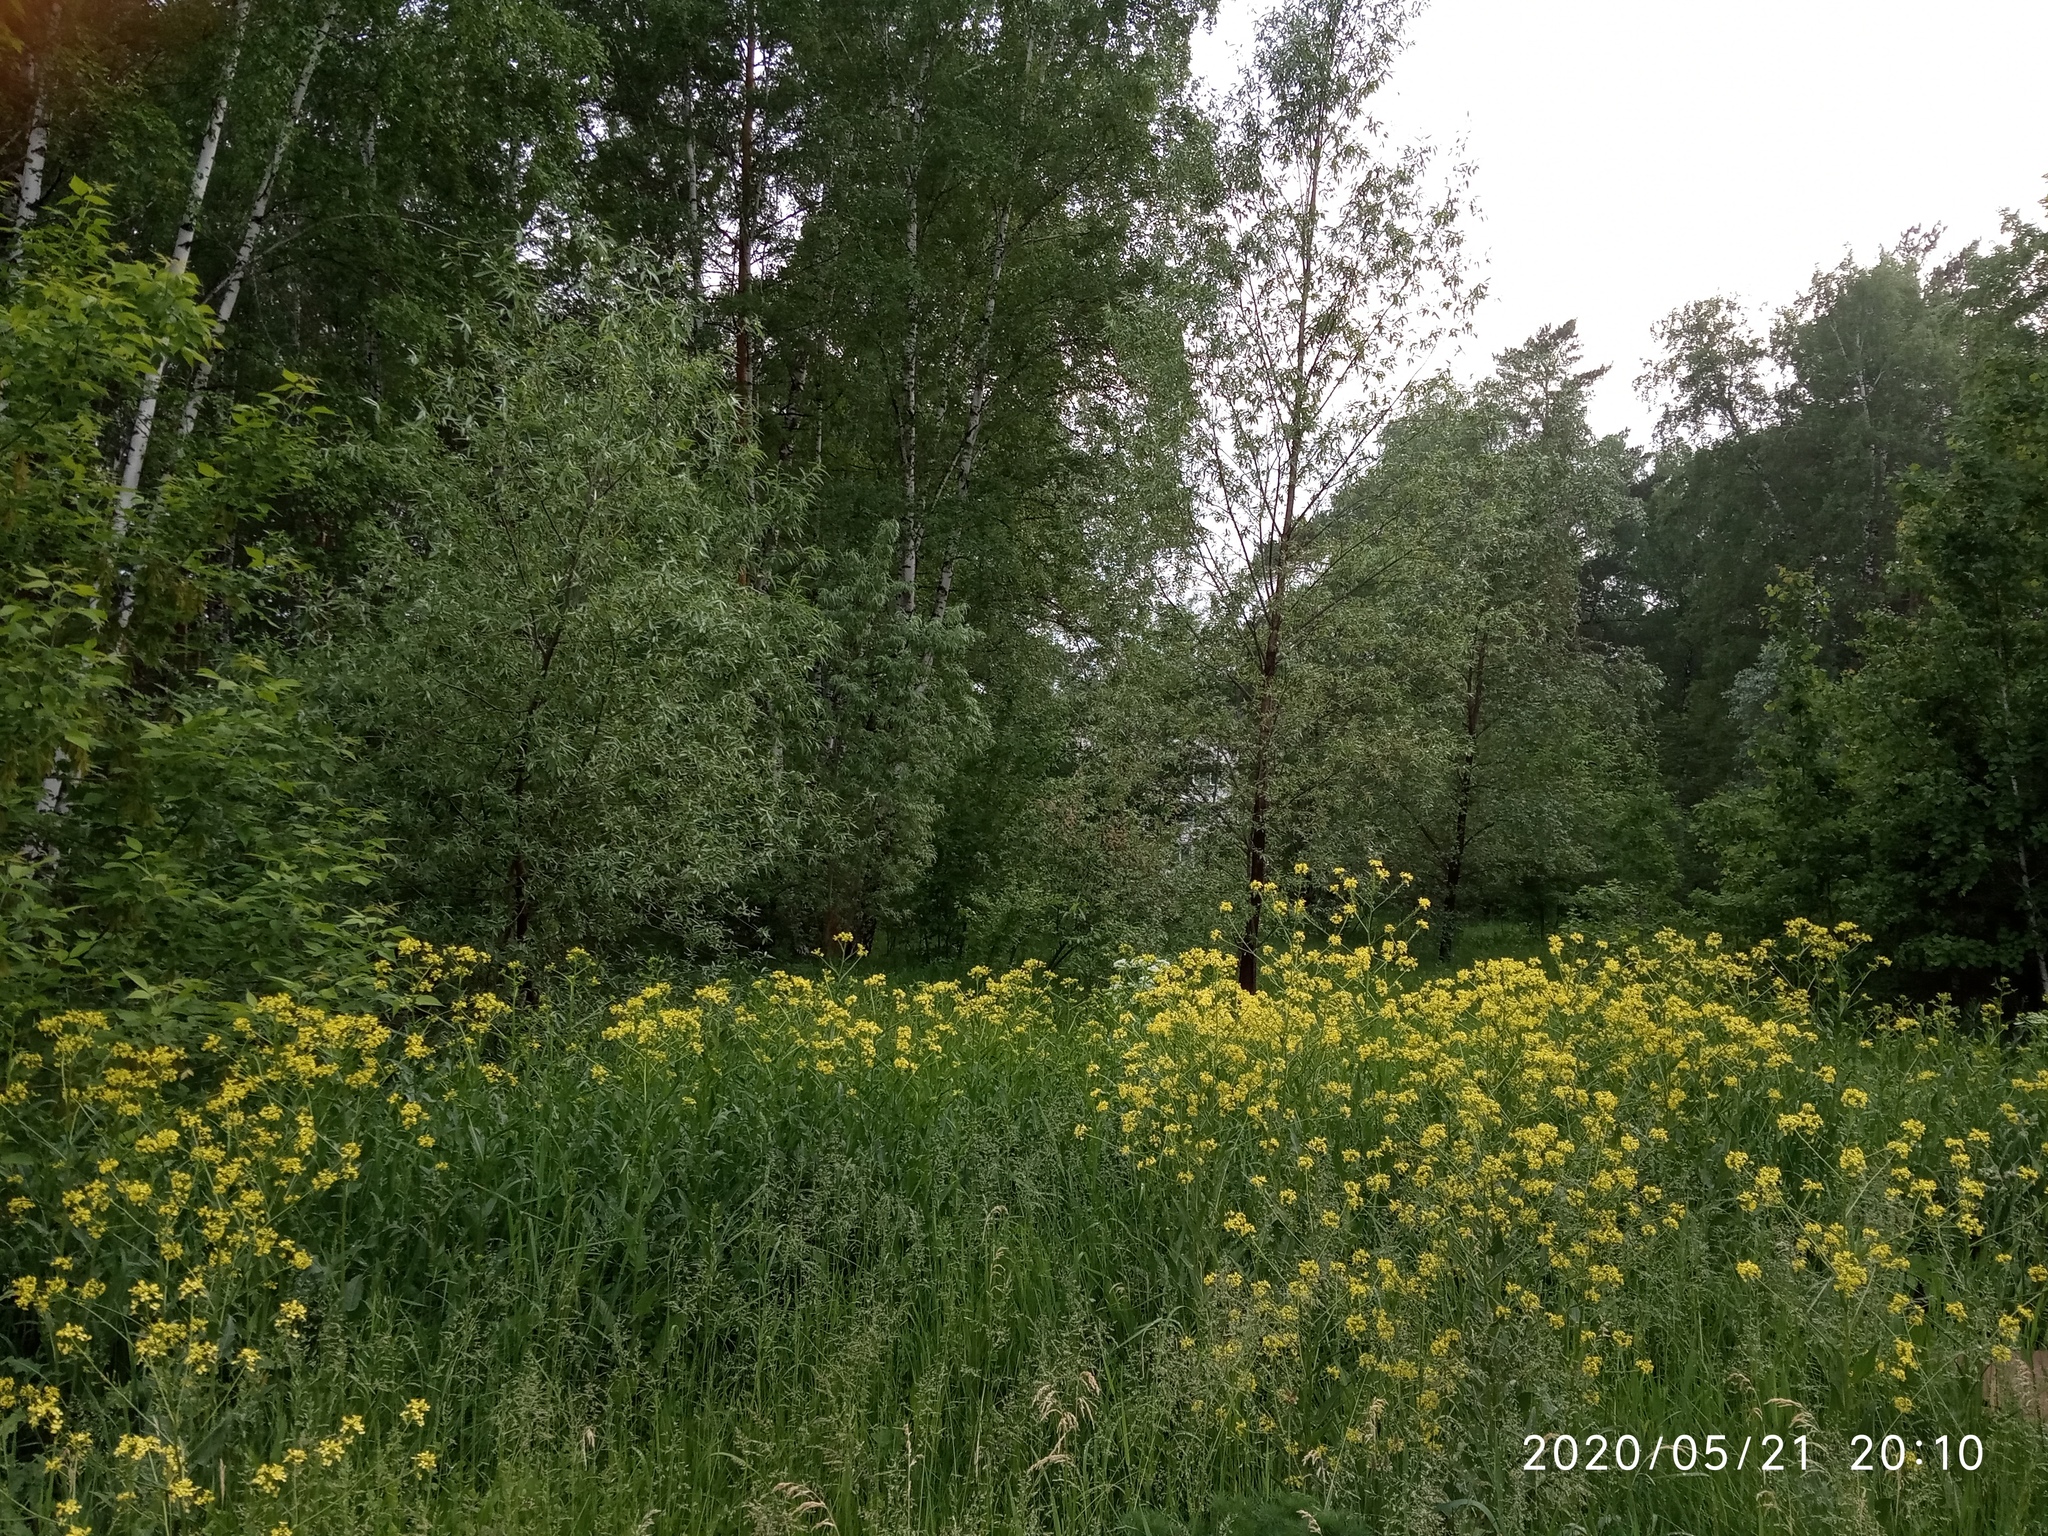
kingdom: Plantae
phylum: Tracheophyta
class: Magnoliopsida
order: Brassicales
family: Brassicaceae
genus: Bunias
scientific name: Bunias orientalis
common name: Warty-cabbage
